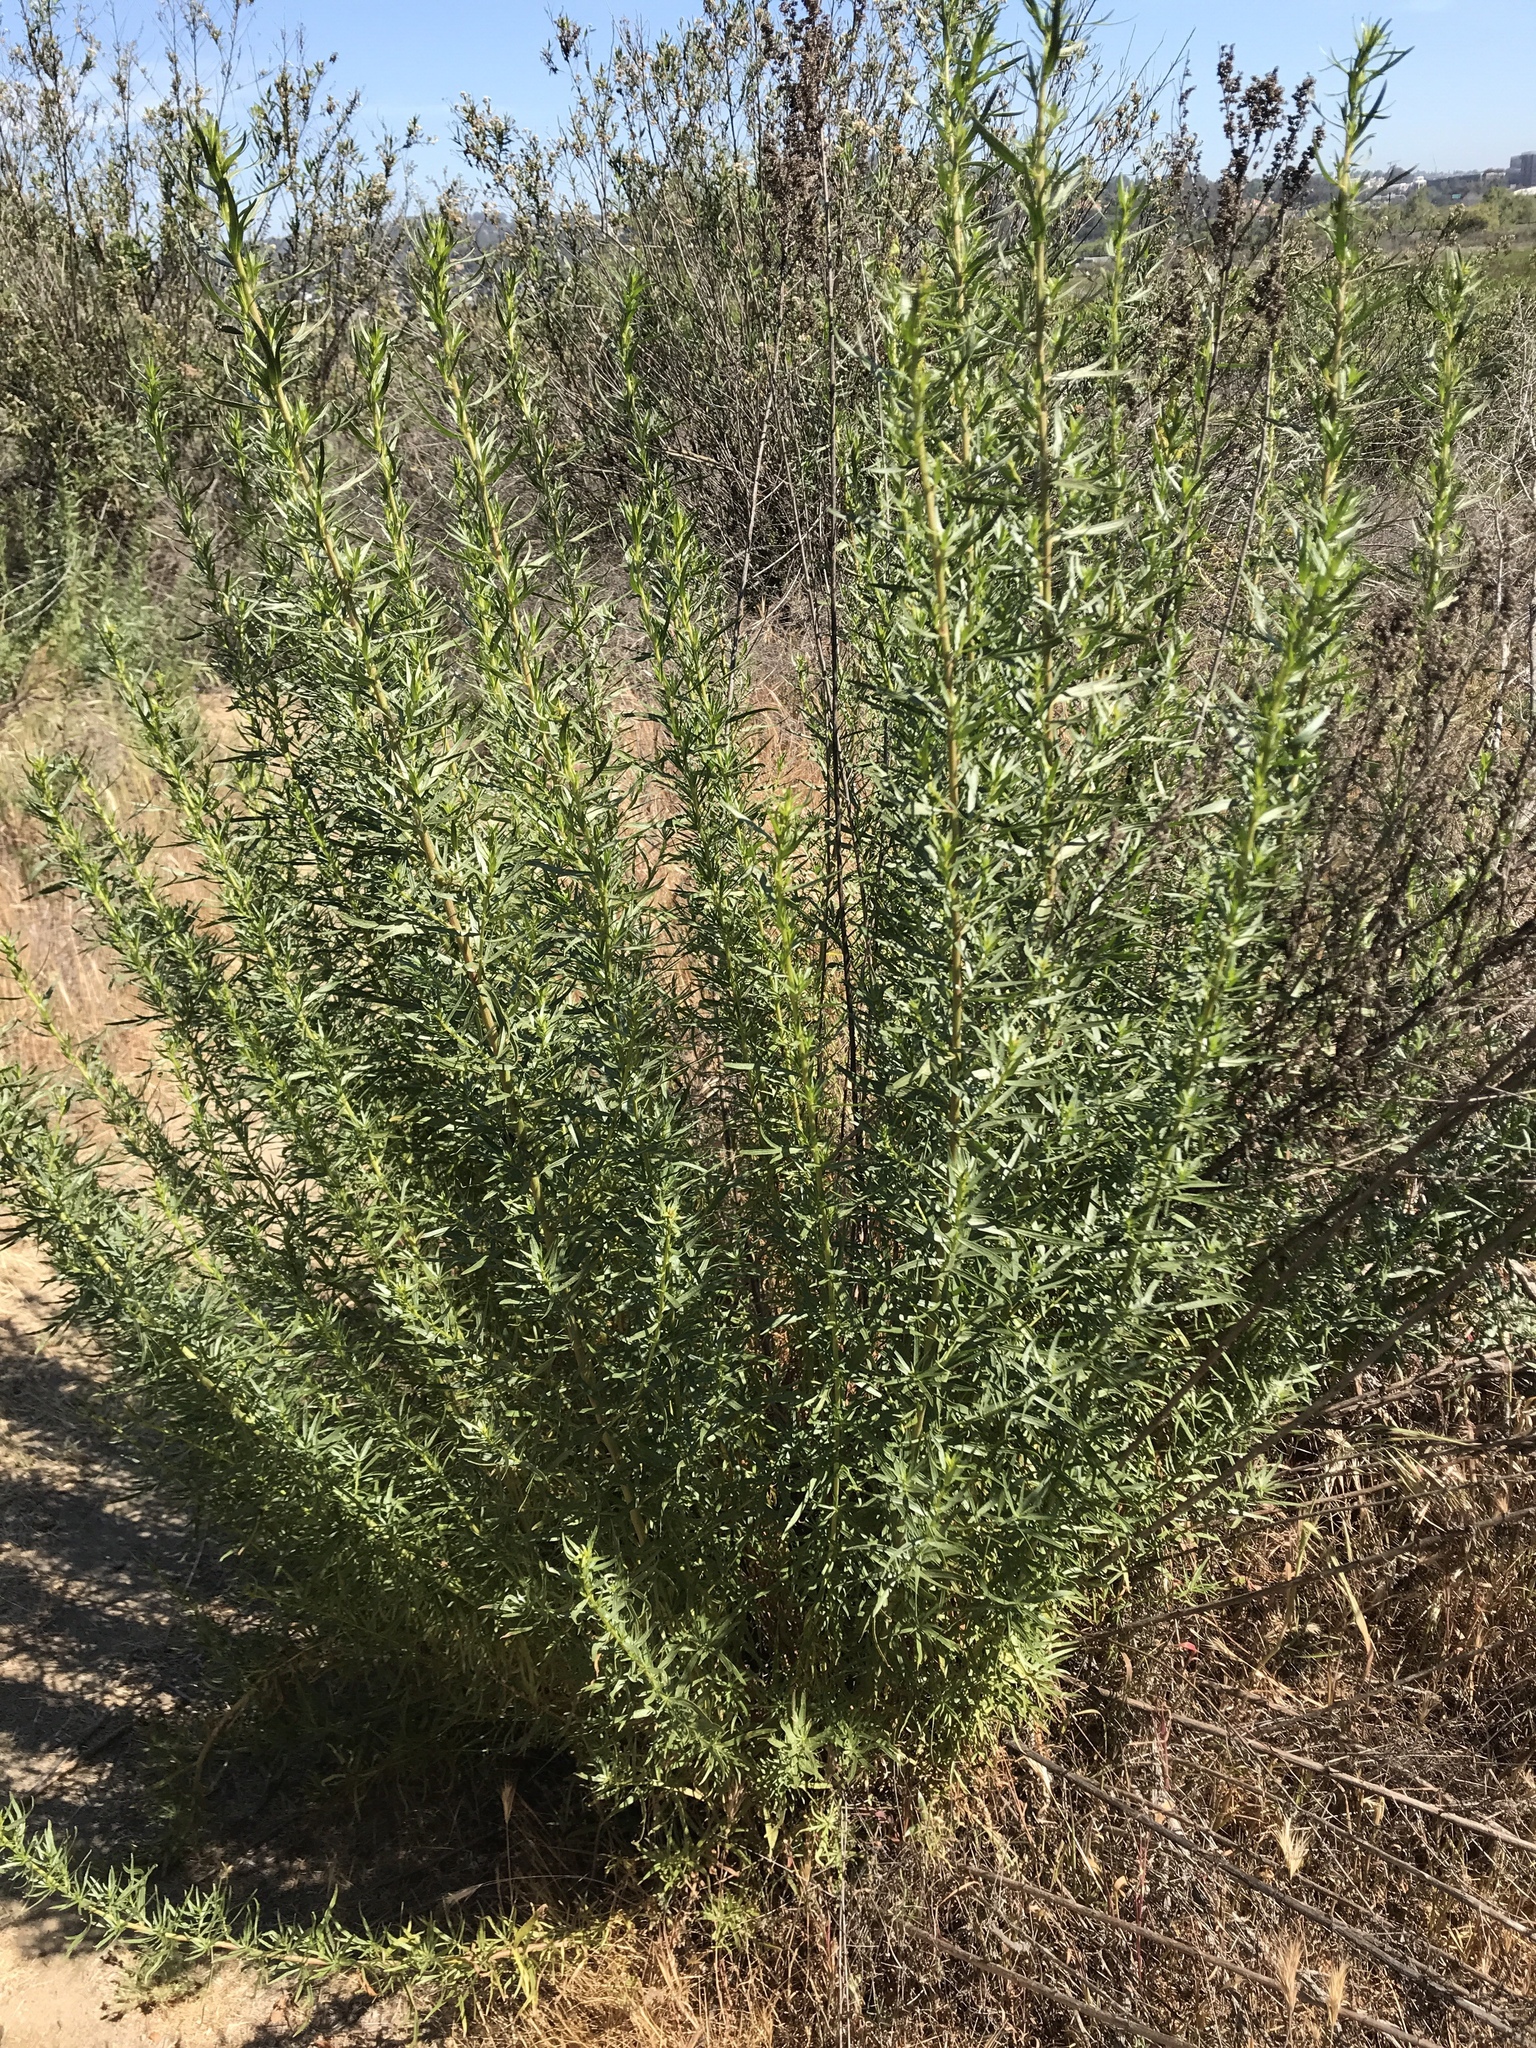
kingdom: Plantae
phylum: Tracheophyta
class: Magnoliopsida
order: Asterales
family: Asteraceae
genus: Artemisia
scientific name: Artemisia dracunculus
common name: Tarragon
